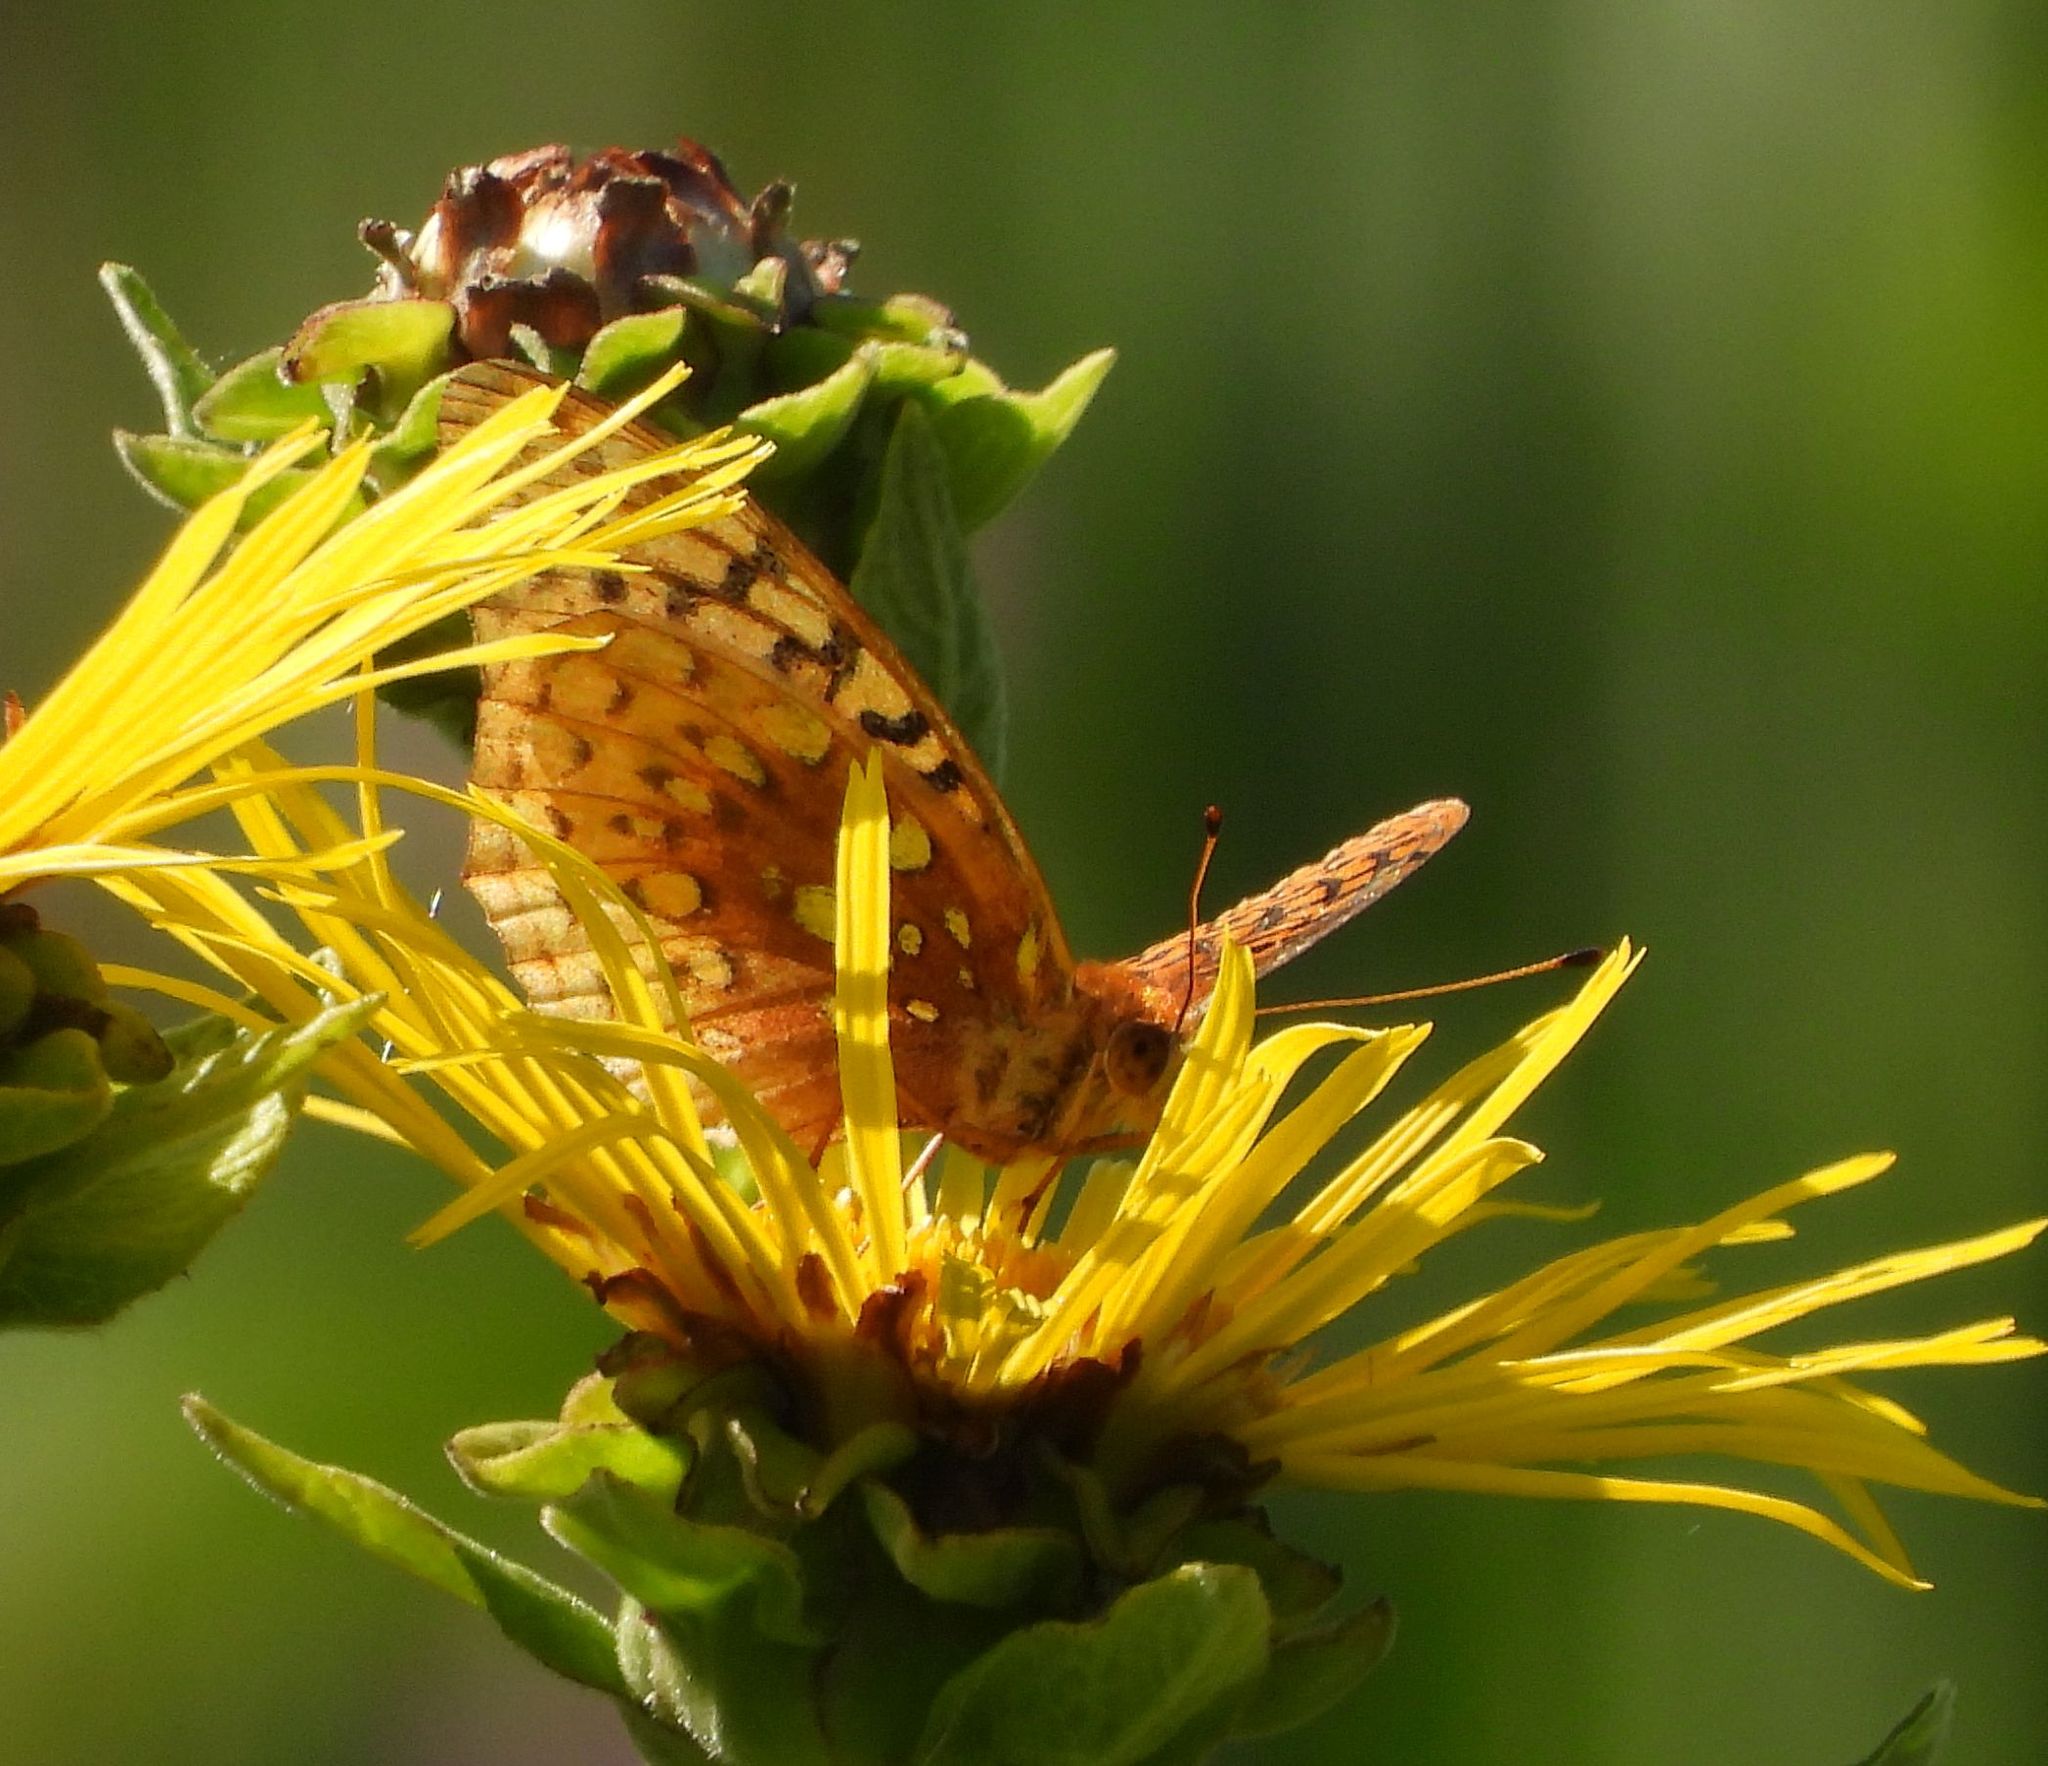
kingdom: Animalia
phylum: Arthropoda
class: Insecta
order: Lepidoptera
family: Nymphalidae
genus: Speyeria
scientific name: Speyeria cybele
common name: Great spangled fritillary
